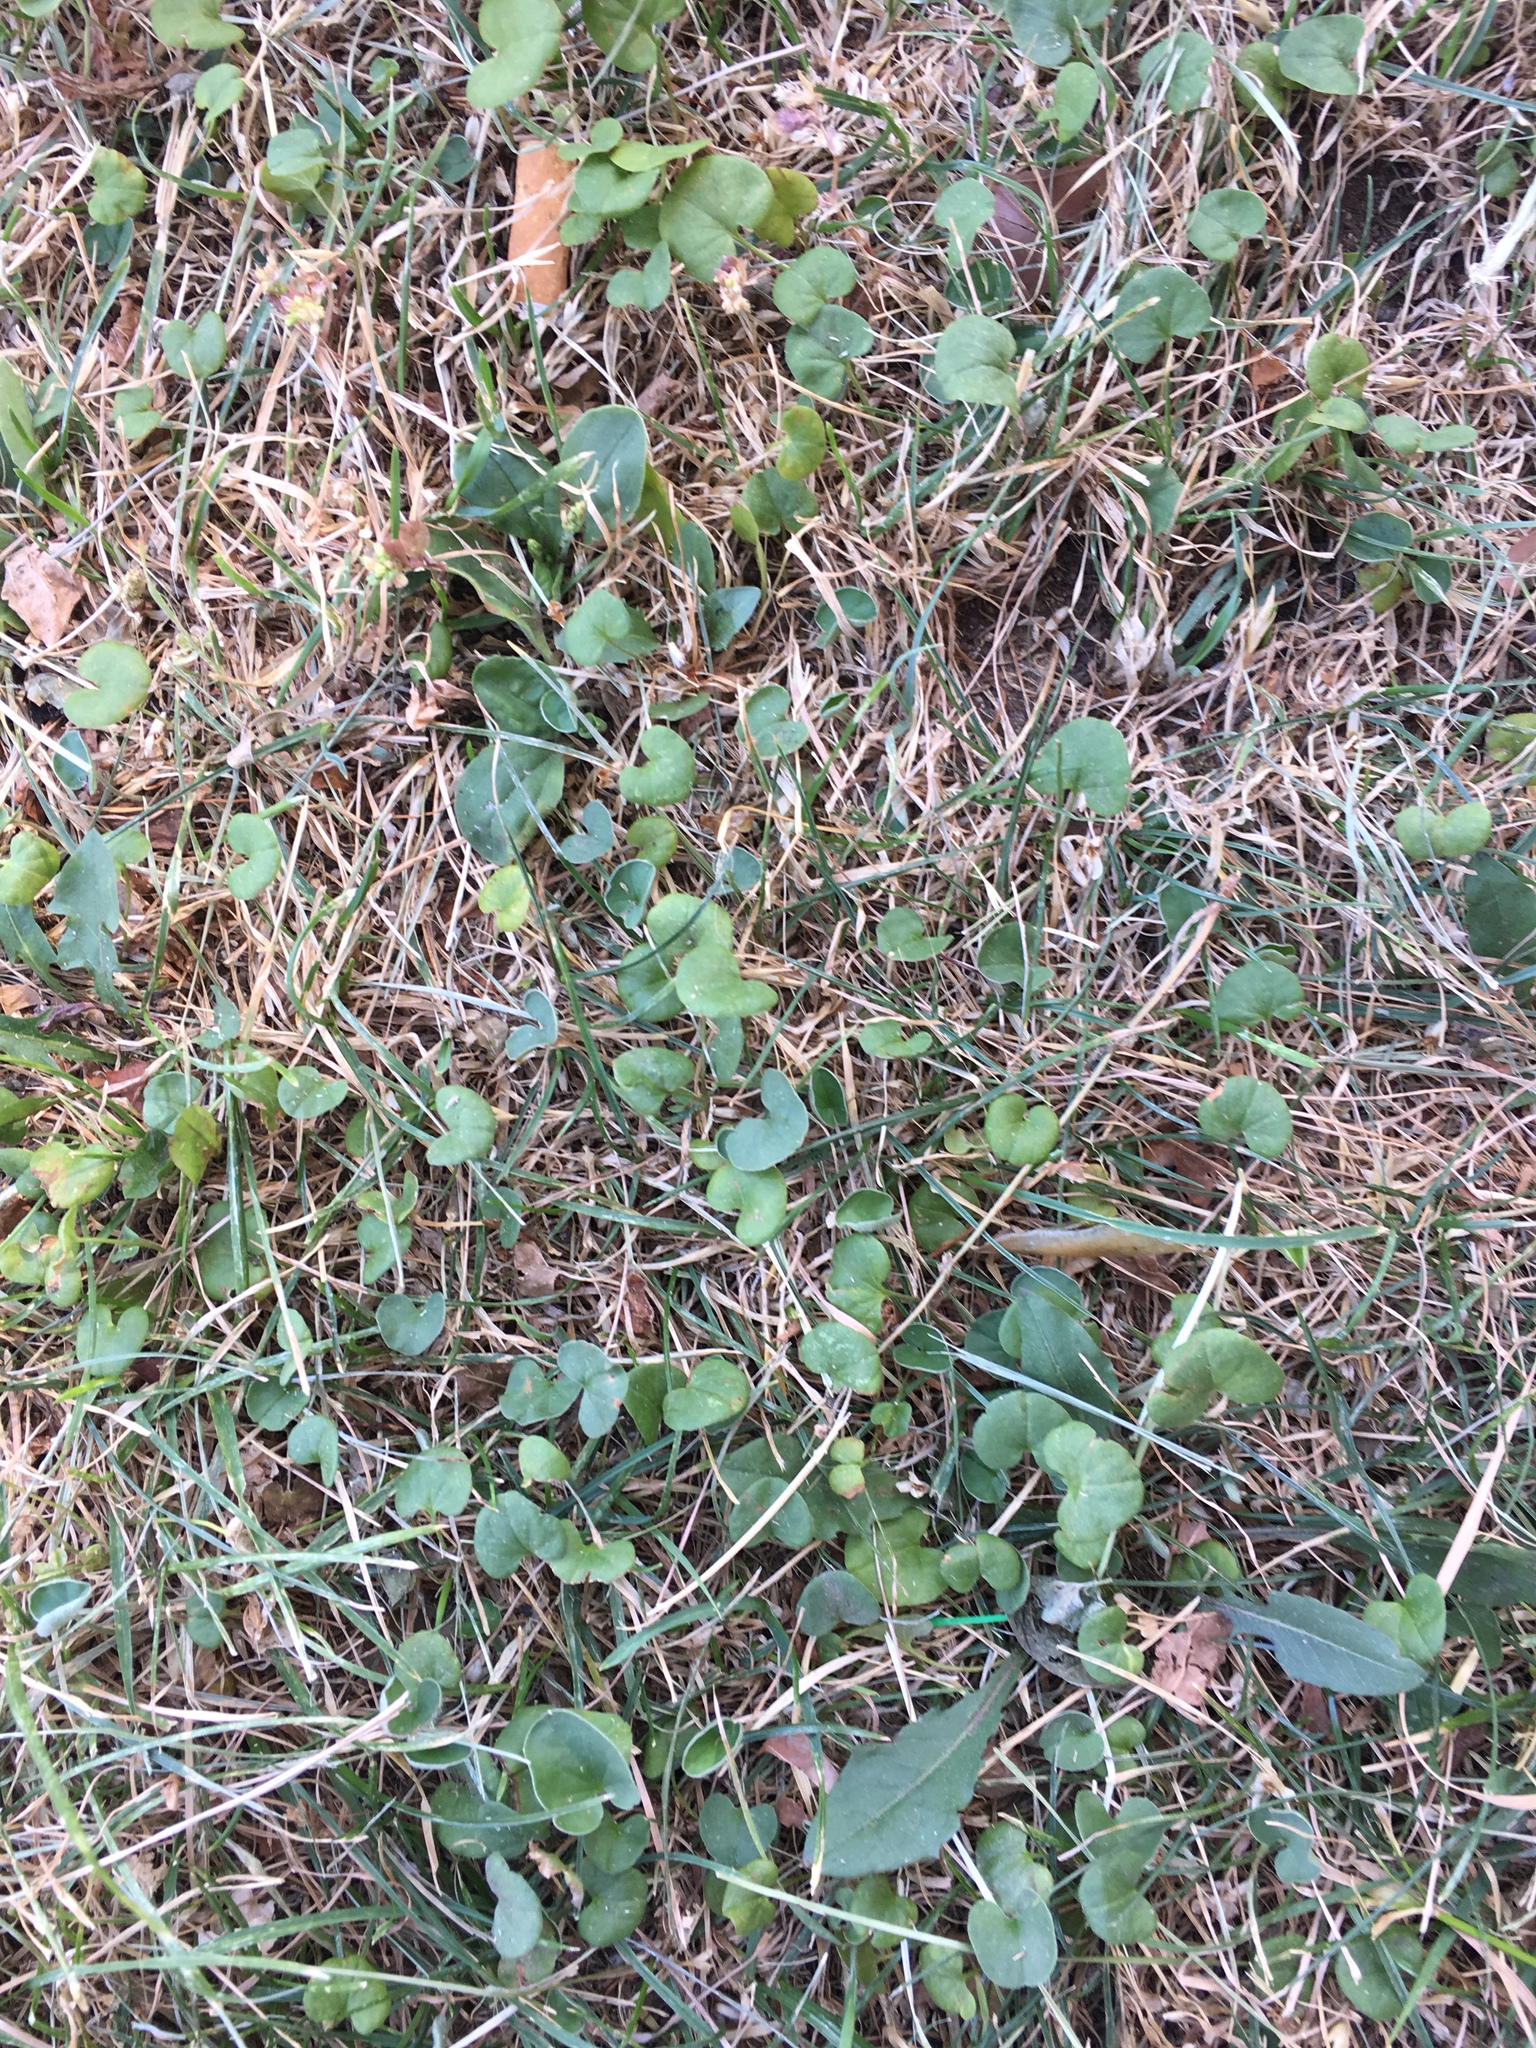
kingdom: Plantae
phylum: Tracheophyta
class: Magnoliopsida
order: Solanales
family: Convolvulaceae
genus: Dichondra
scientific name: Dichondra micrantha
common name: Kidneyweed
